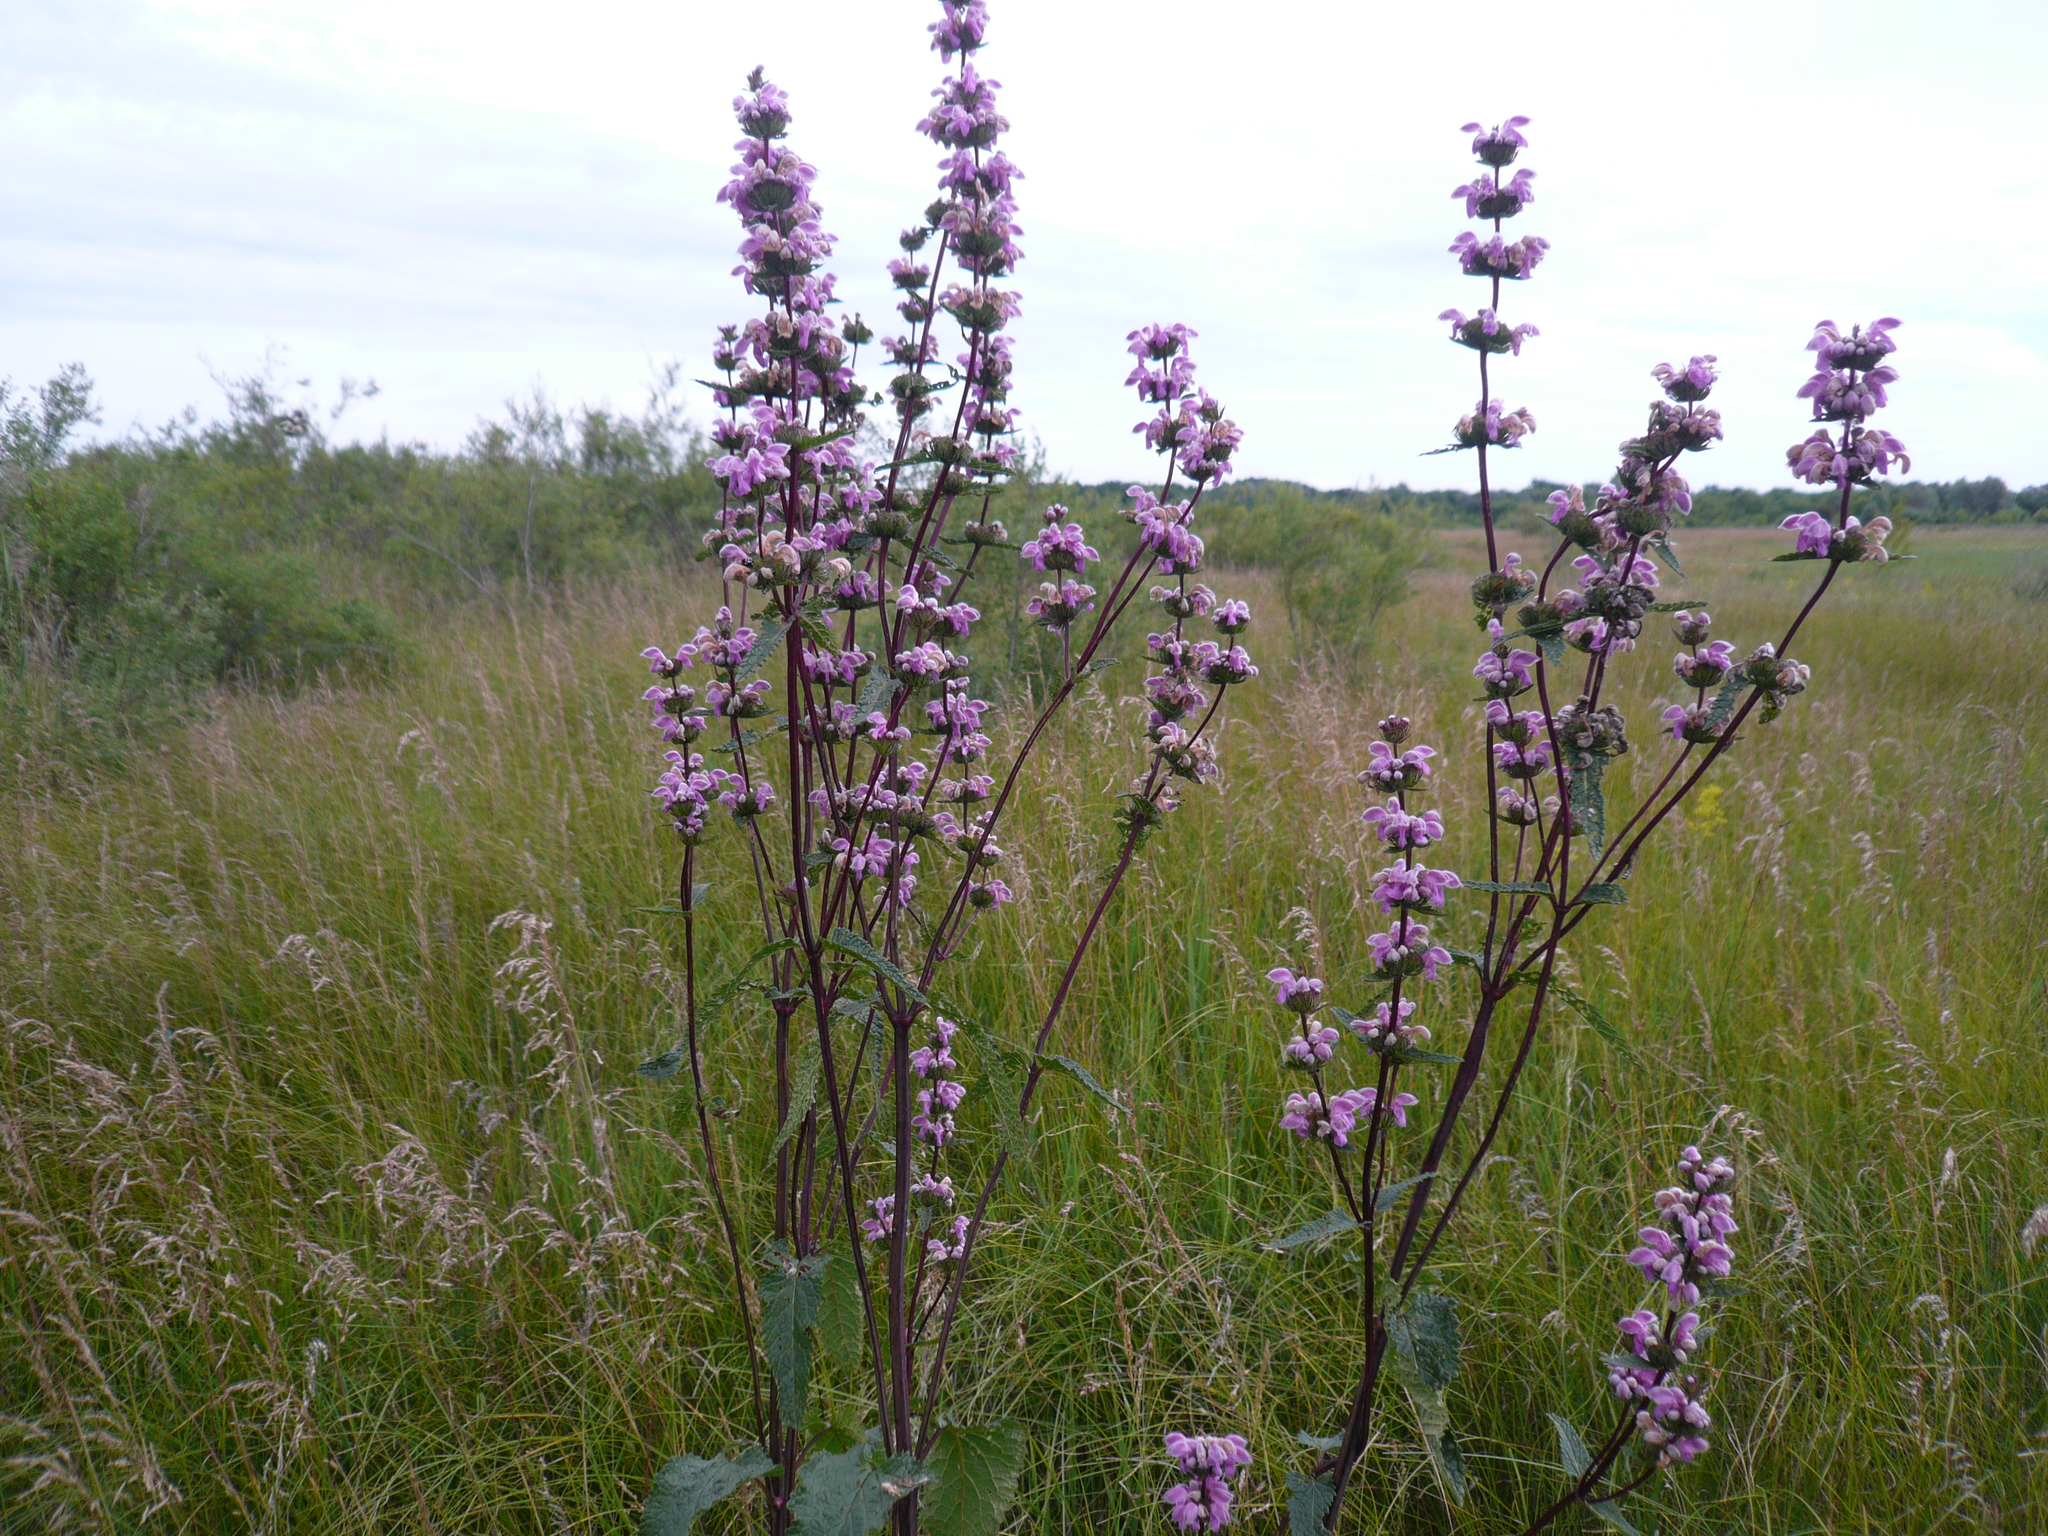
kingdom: Plantae
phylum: Tracheophyta
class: Magnoliopsida
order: Lamiales
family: Lamiaceae
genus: Phlomoides
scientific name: Phlomoides tuberosa
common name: Tuberous jerusalem sage
